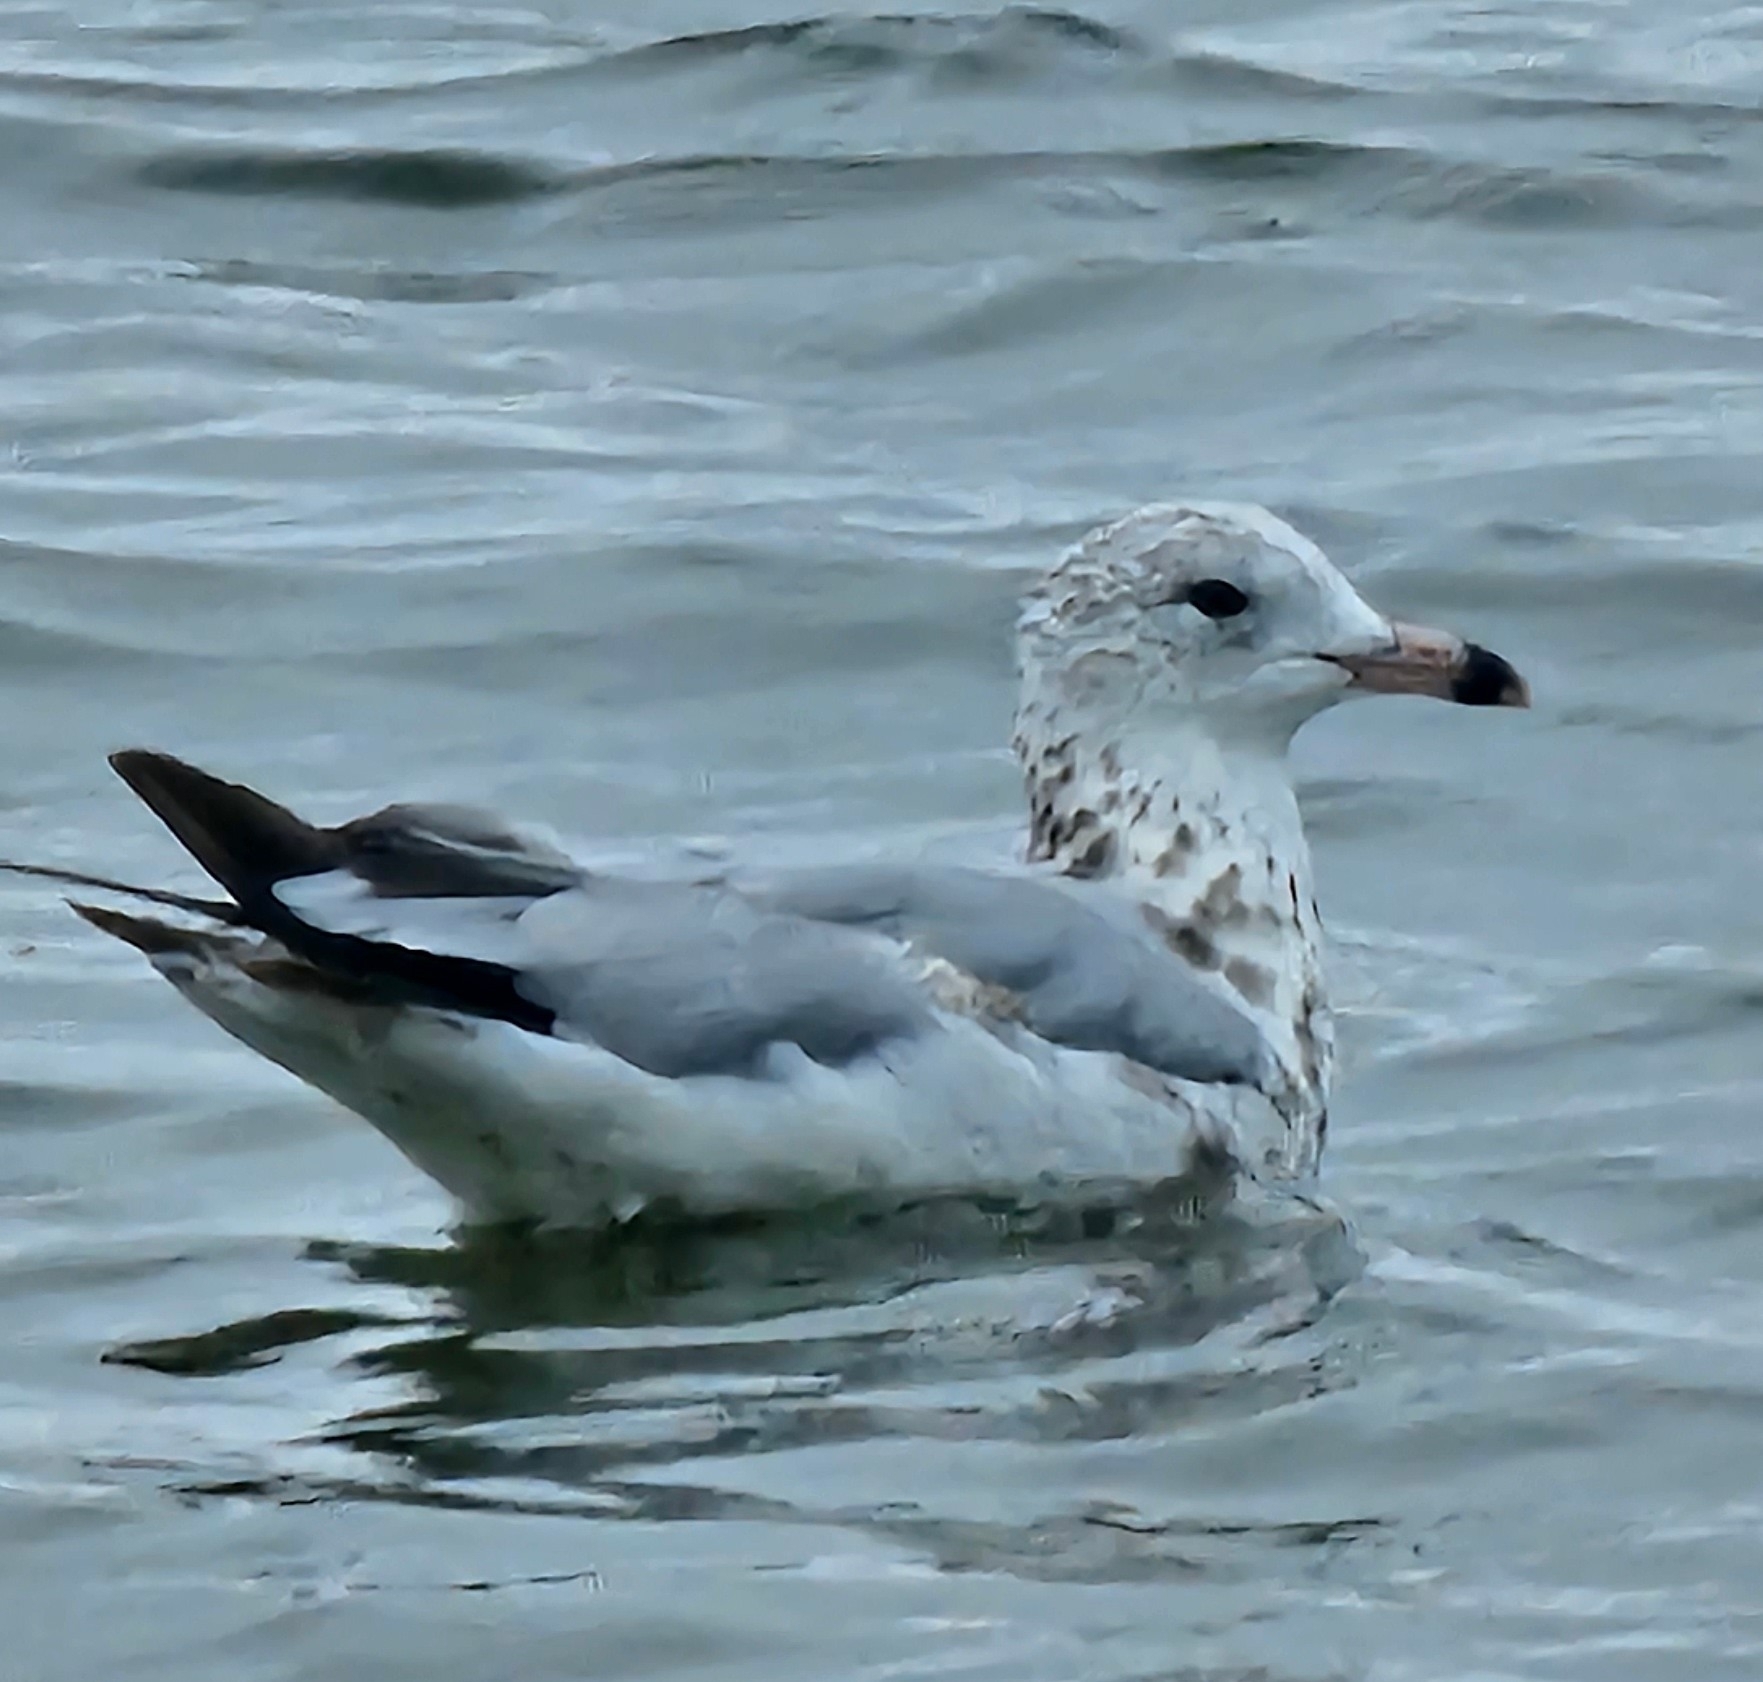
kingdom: Animalia
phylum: Chordata
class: Aves
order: Charadriiformes
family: Laridae
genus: Larus
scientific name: Larus delawarensis
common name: Ring-billed gull
